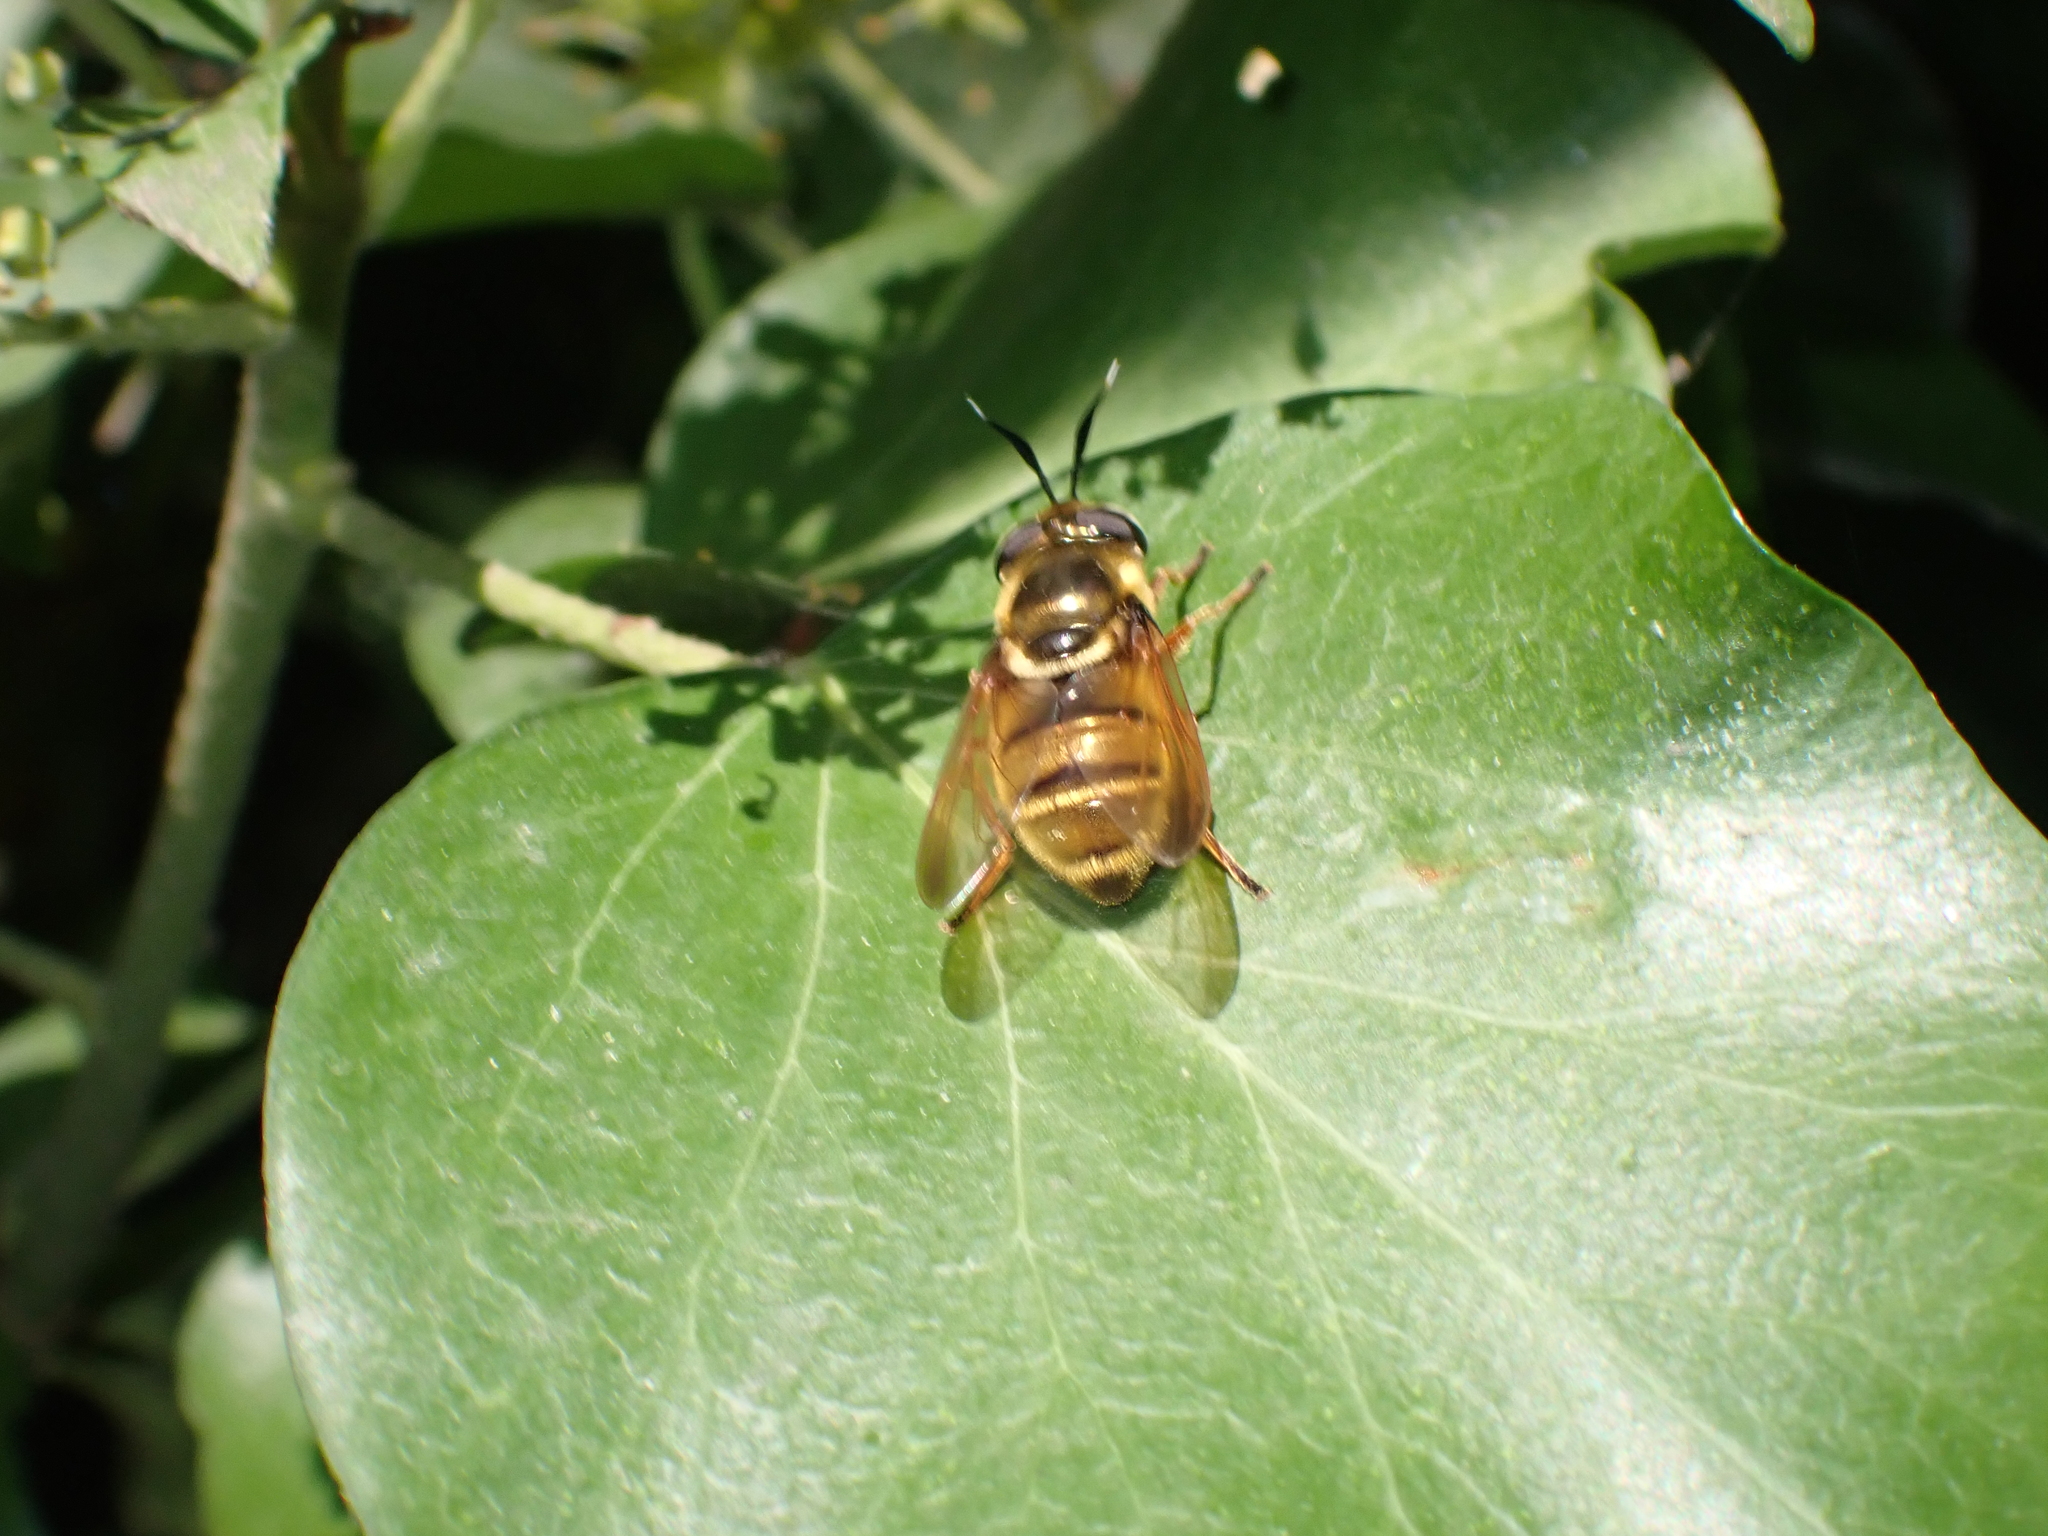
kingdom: Animalia
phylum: Arthropoda
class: Insecta
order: Diptera
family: Syrphidae
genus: Callicera
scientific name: Callicera spinolae
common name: Golden hoverfly
